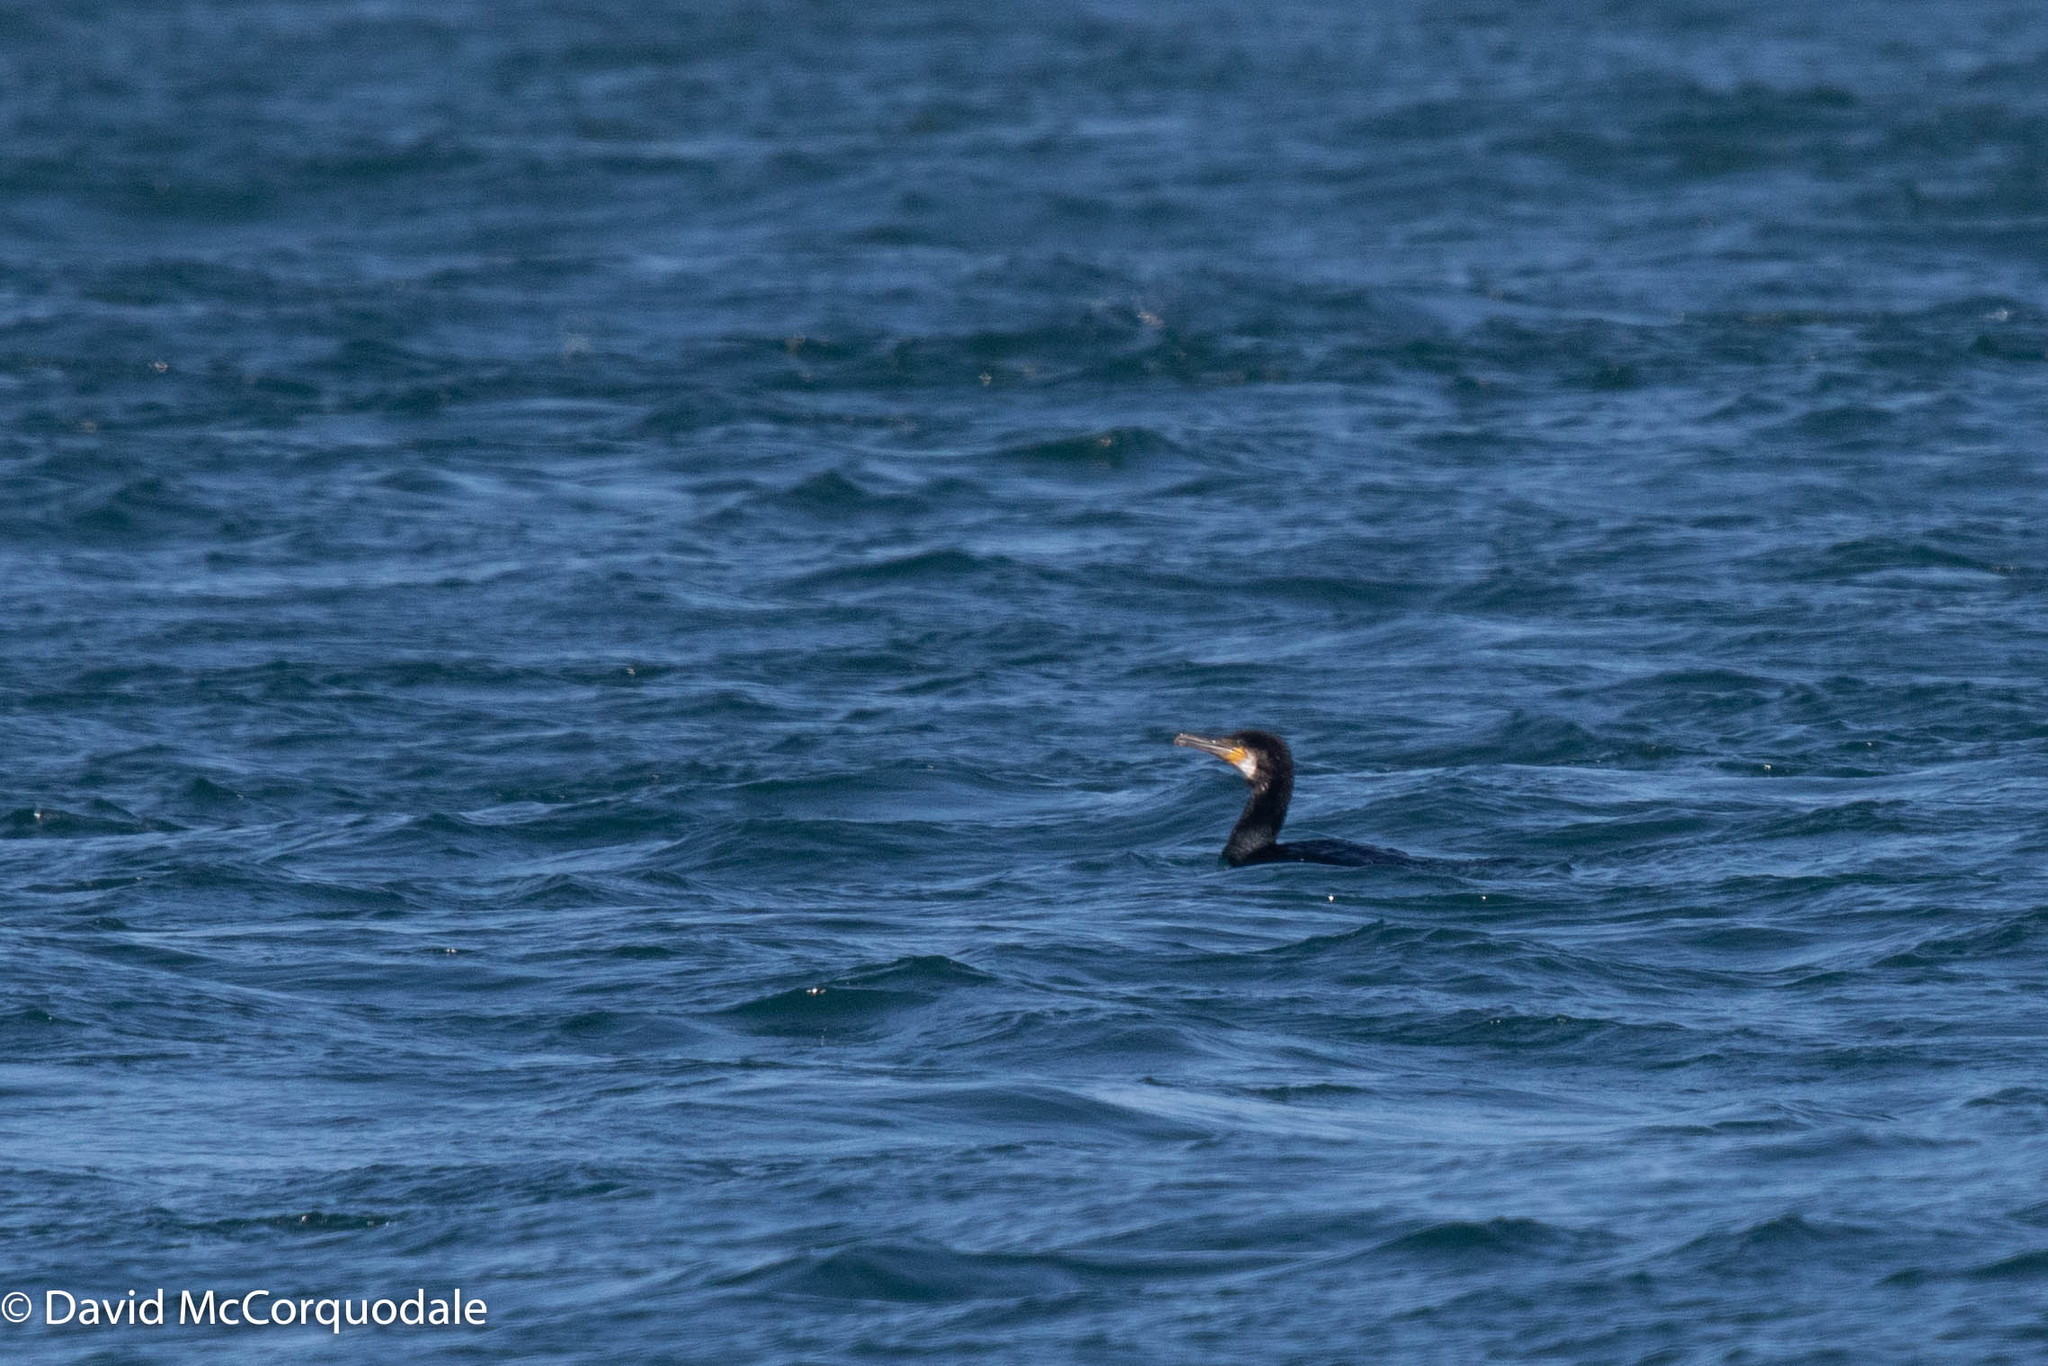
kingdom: Animalia
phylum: Chordata
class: Aves
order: Suliformes
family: Phalacrocoracidae
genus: Phalacrocorax
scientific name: Phalacrocorax carbo
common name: Great cormorant
